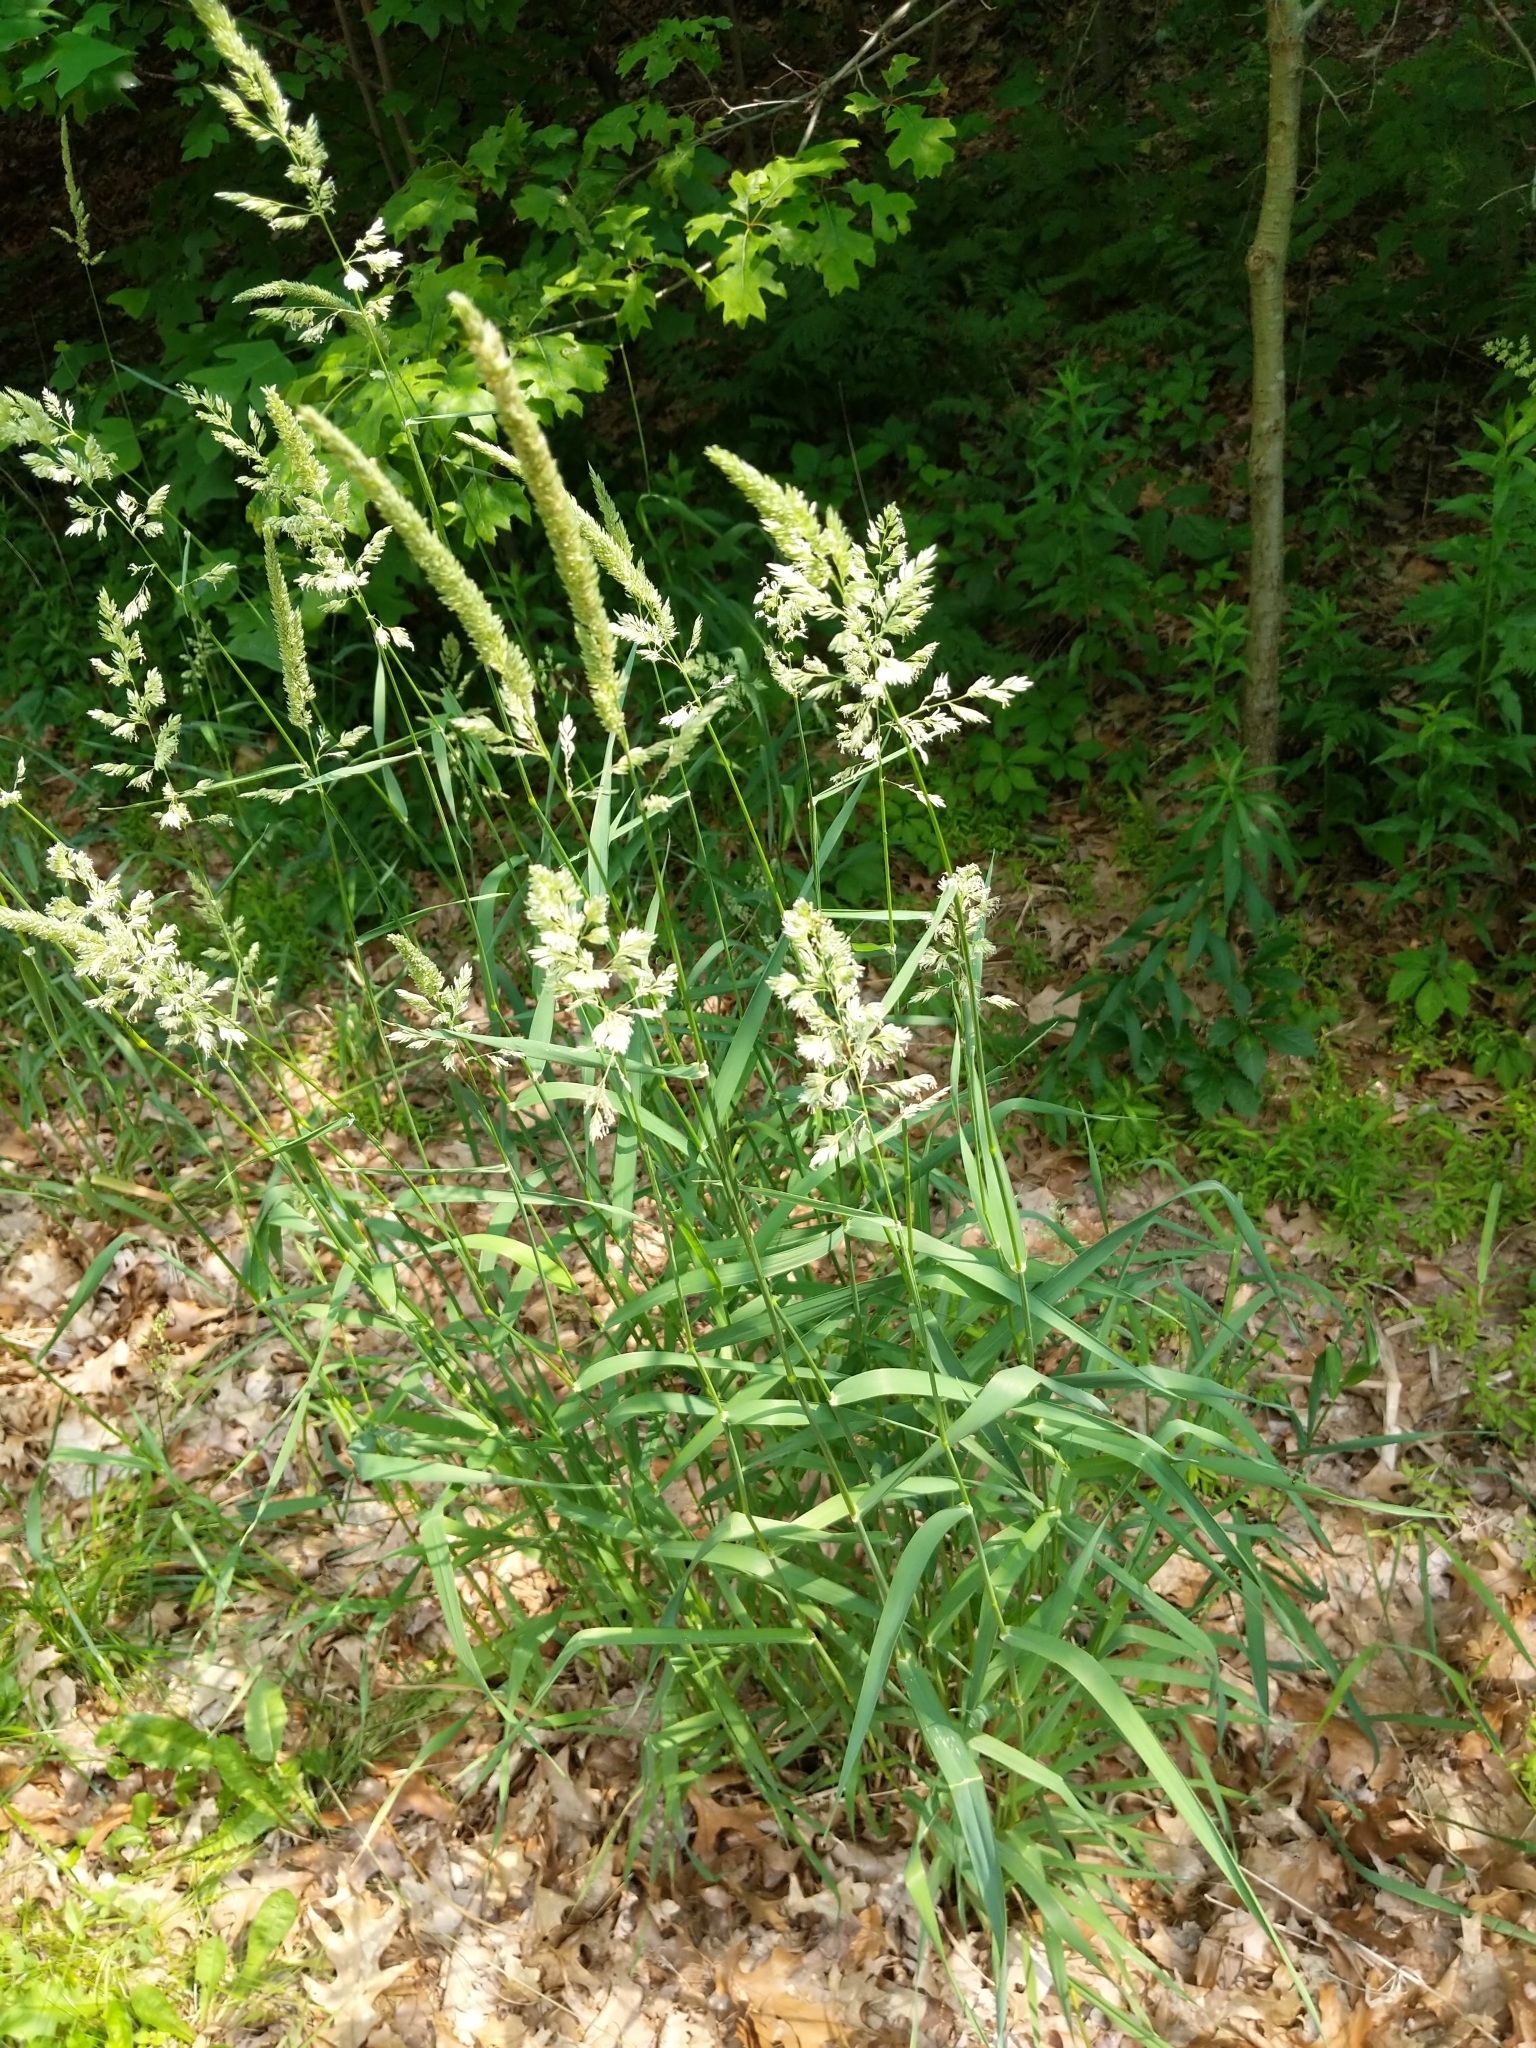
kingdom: Plantae
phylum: Tracheophyta
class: Liliopsida
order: Poales
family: Poaceae
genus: Phalaris
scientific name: Phalaris arundinacea
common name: Reed canary-grass
